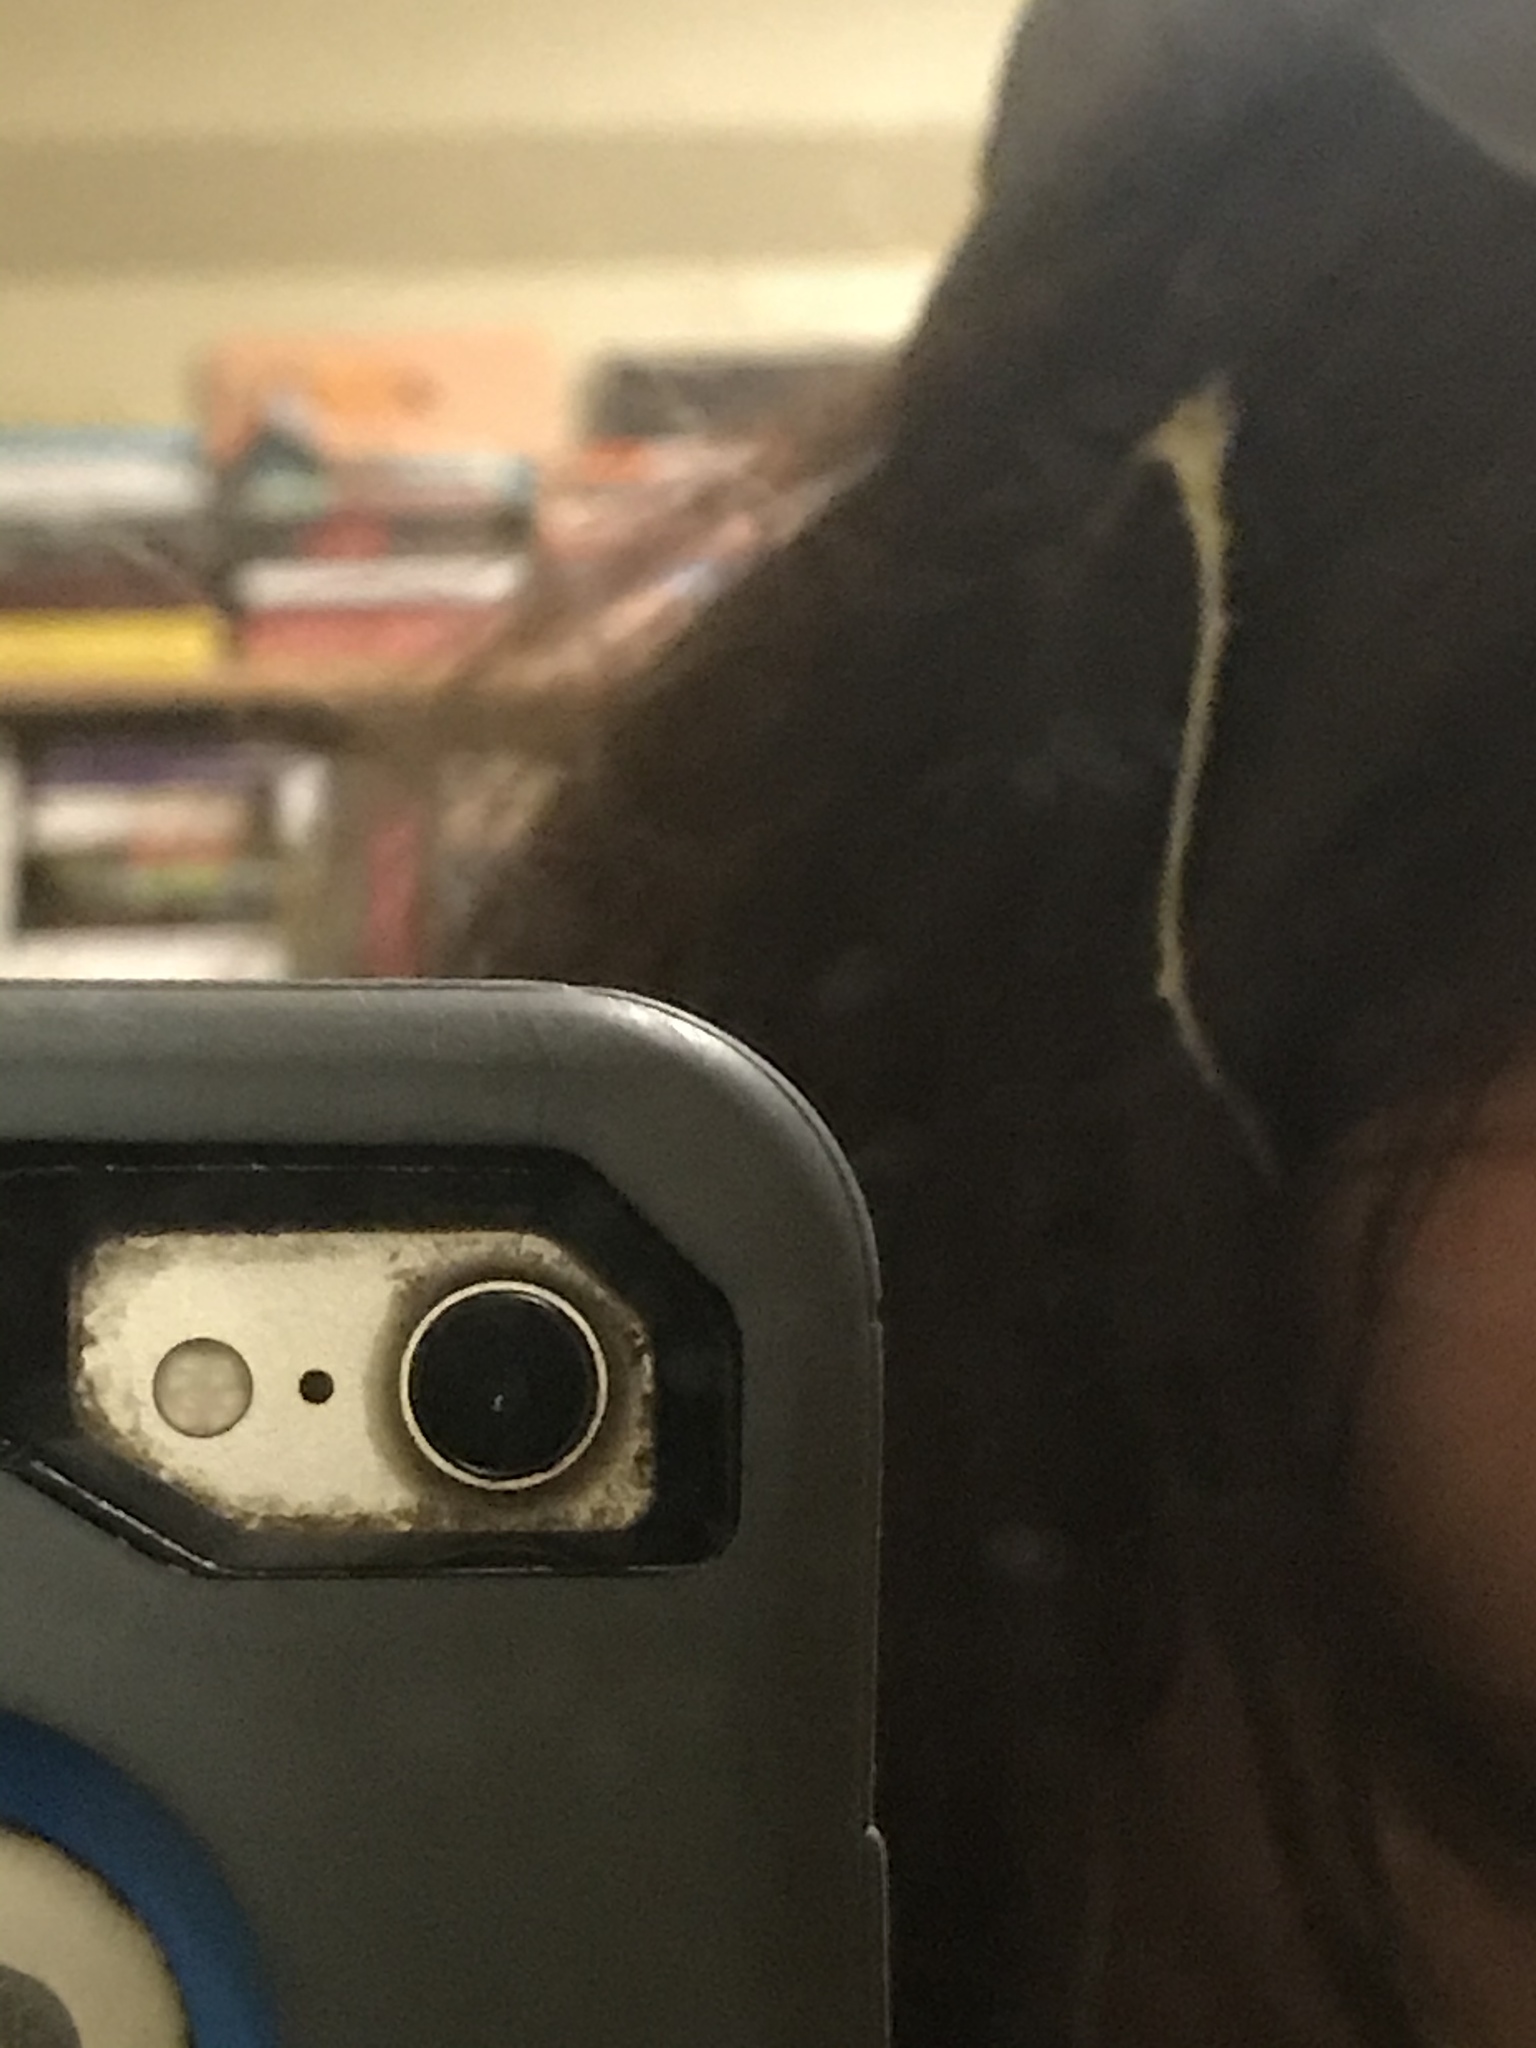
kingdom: Animalia
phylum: Chordata
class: Aves
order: Passeriformes
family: Corvidae
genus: Corvus
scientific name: Corvus brachyrhynchos
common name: American crow
